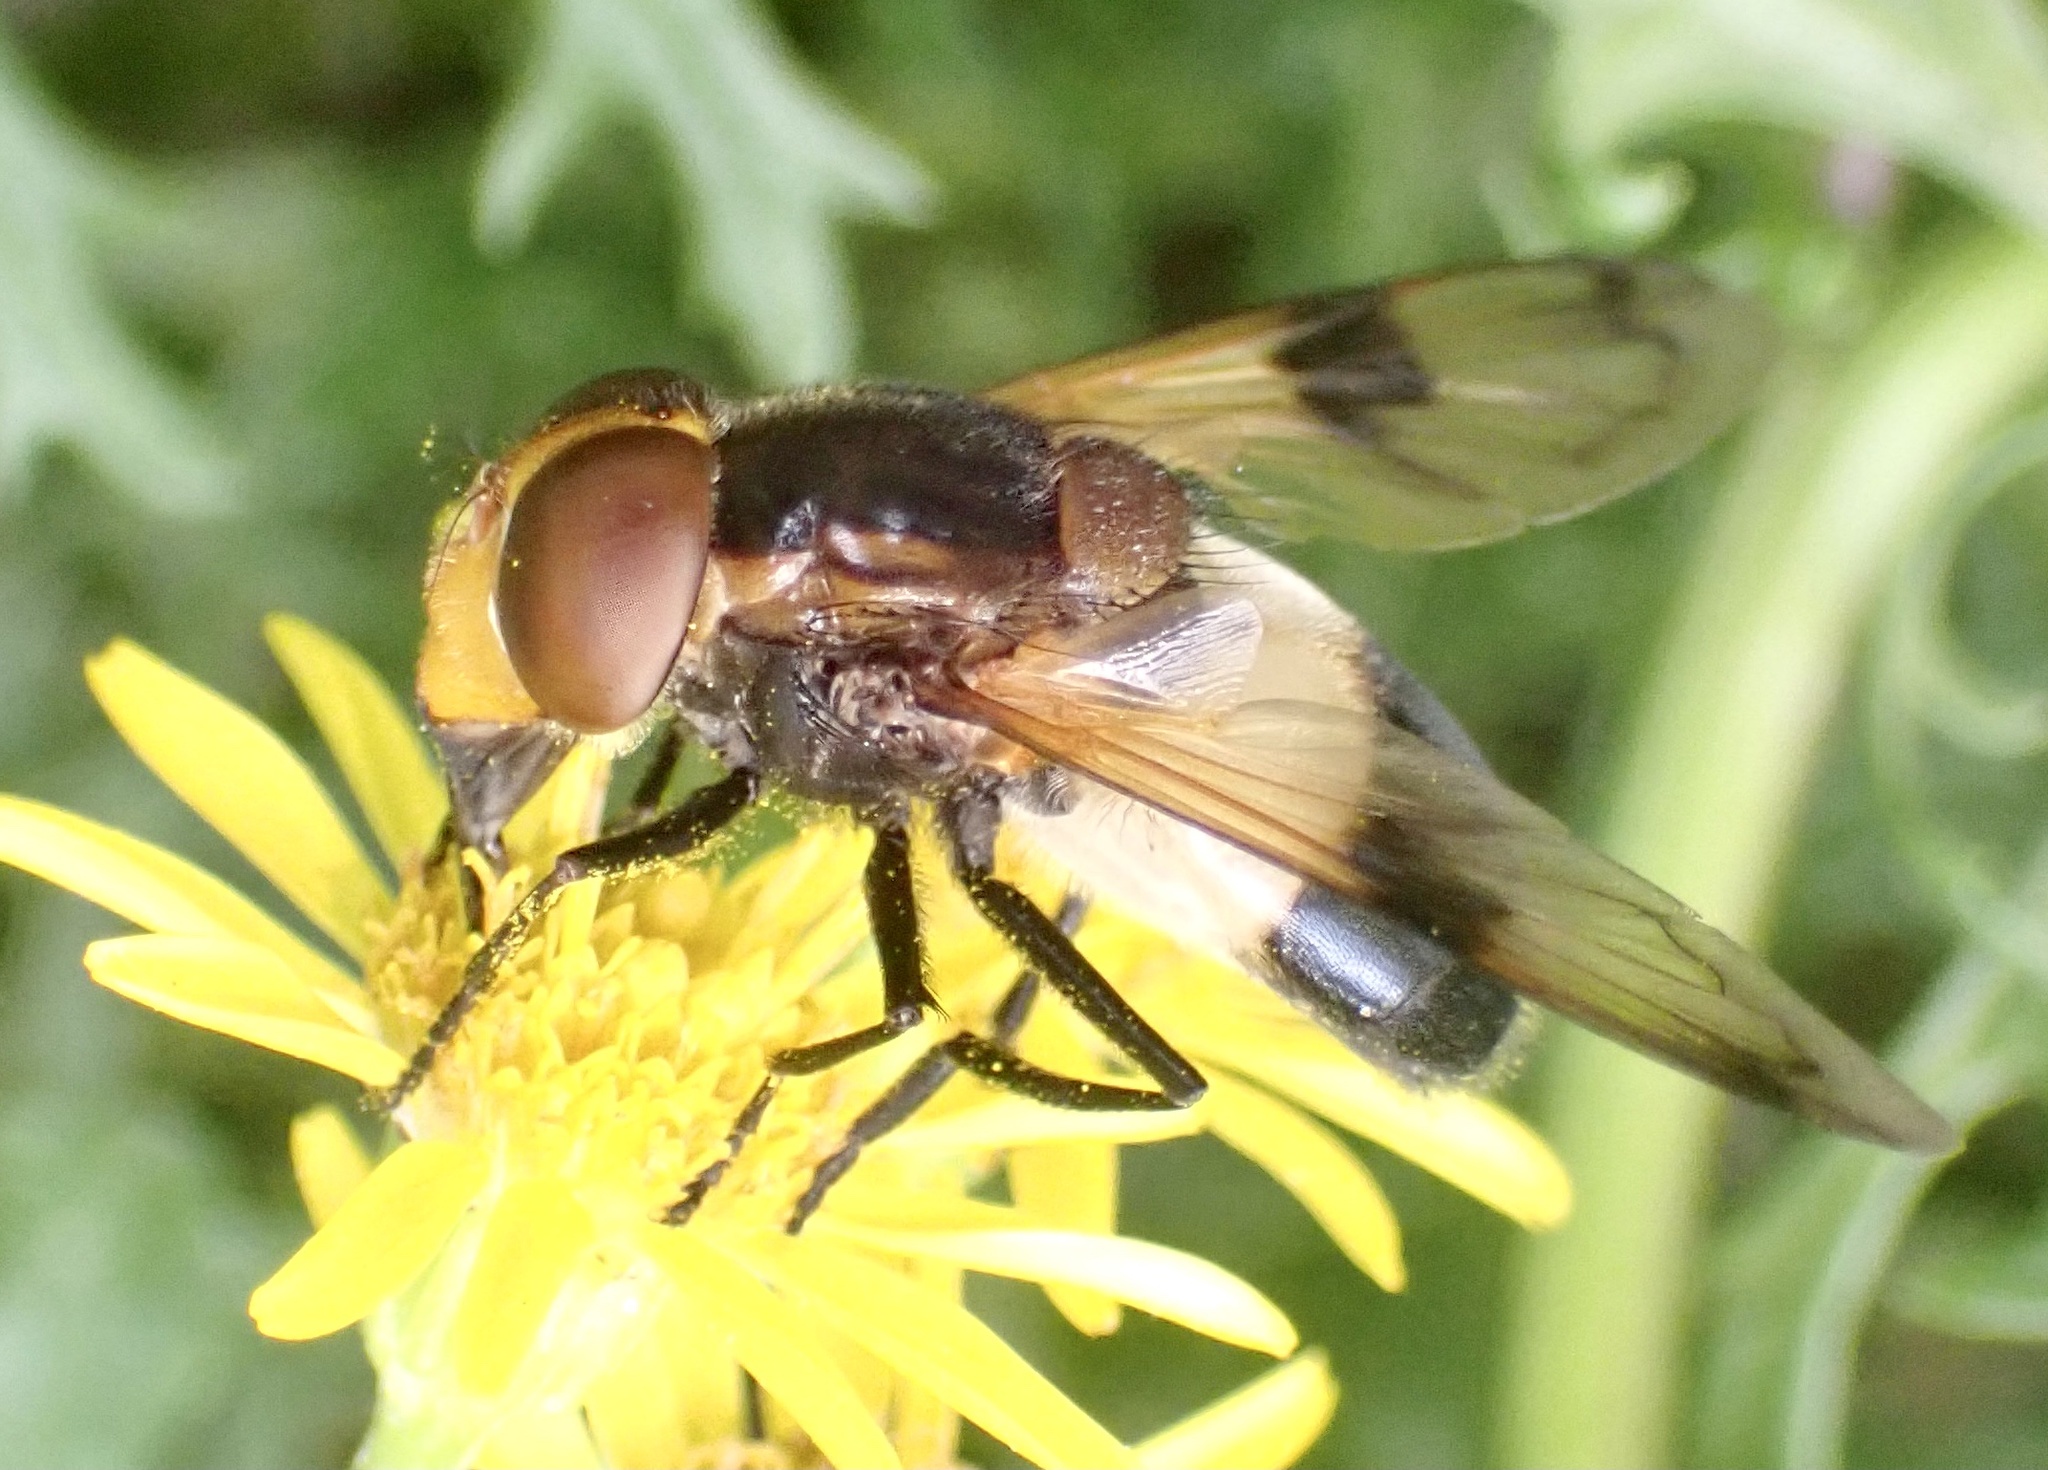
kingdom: Animalia
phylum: Arthropoda
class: Insecta
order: Diptera
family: Syrphidae
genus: Volucella
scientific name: Volucella pellucens
